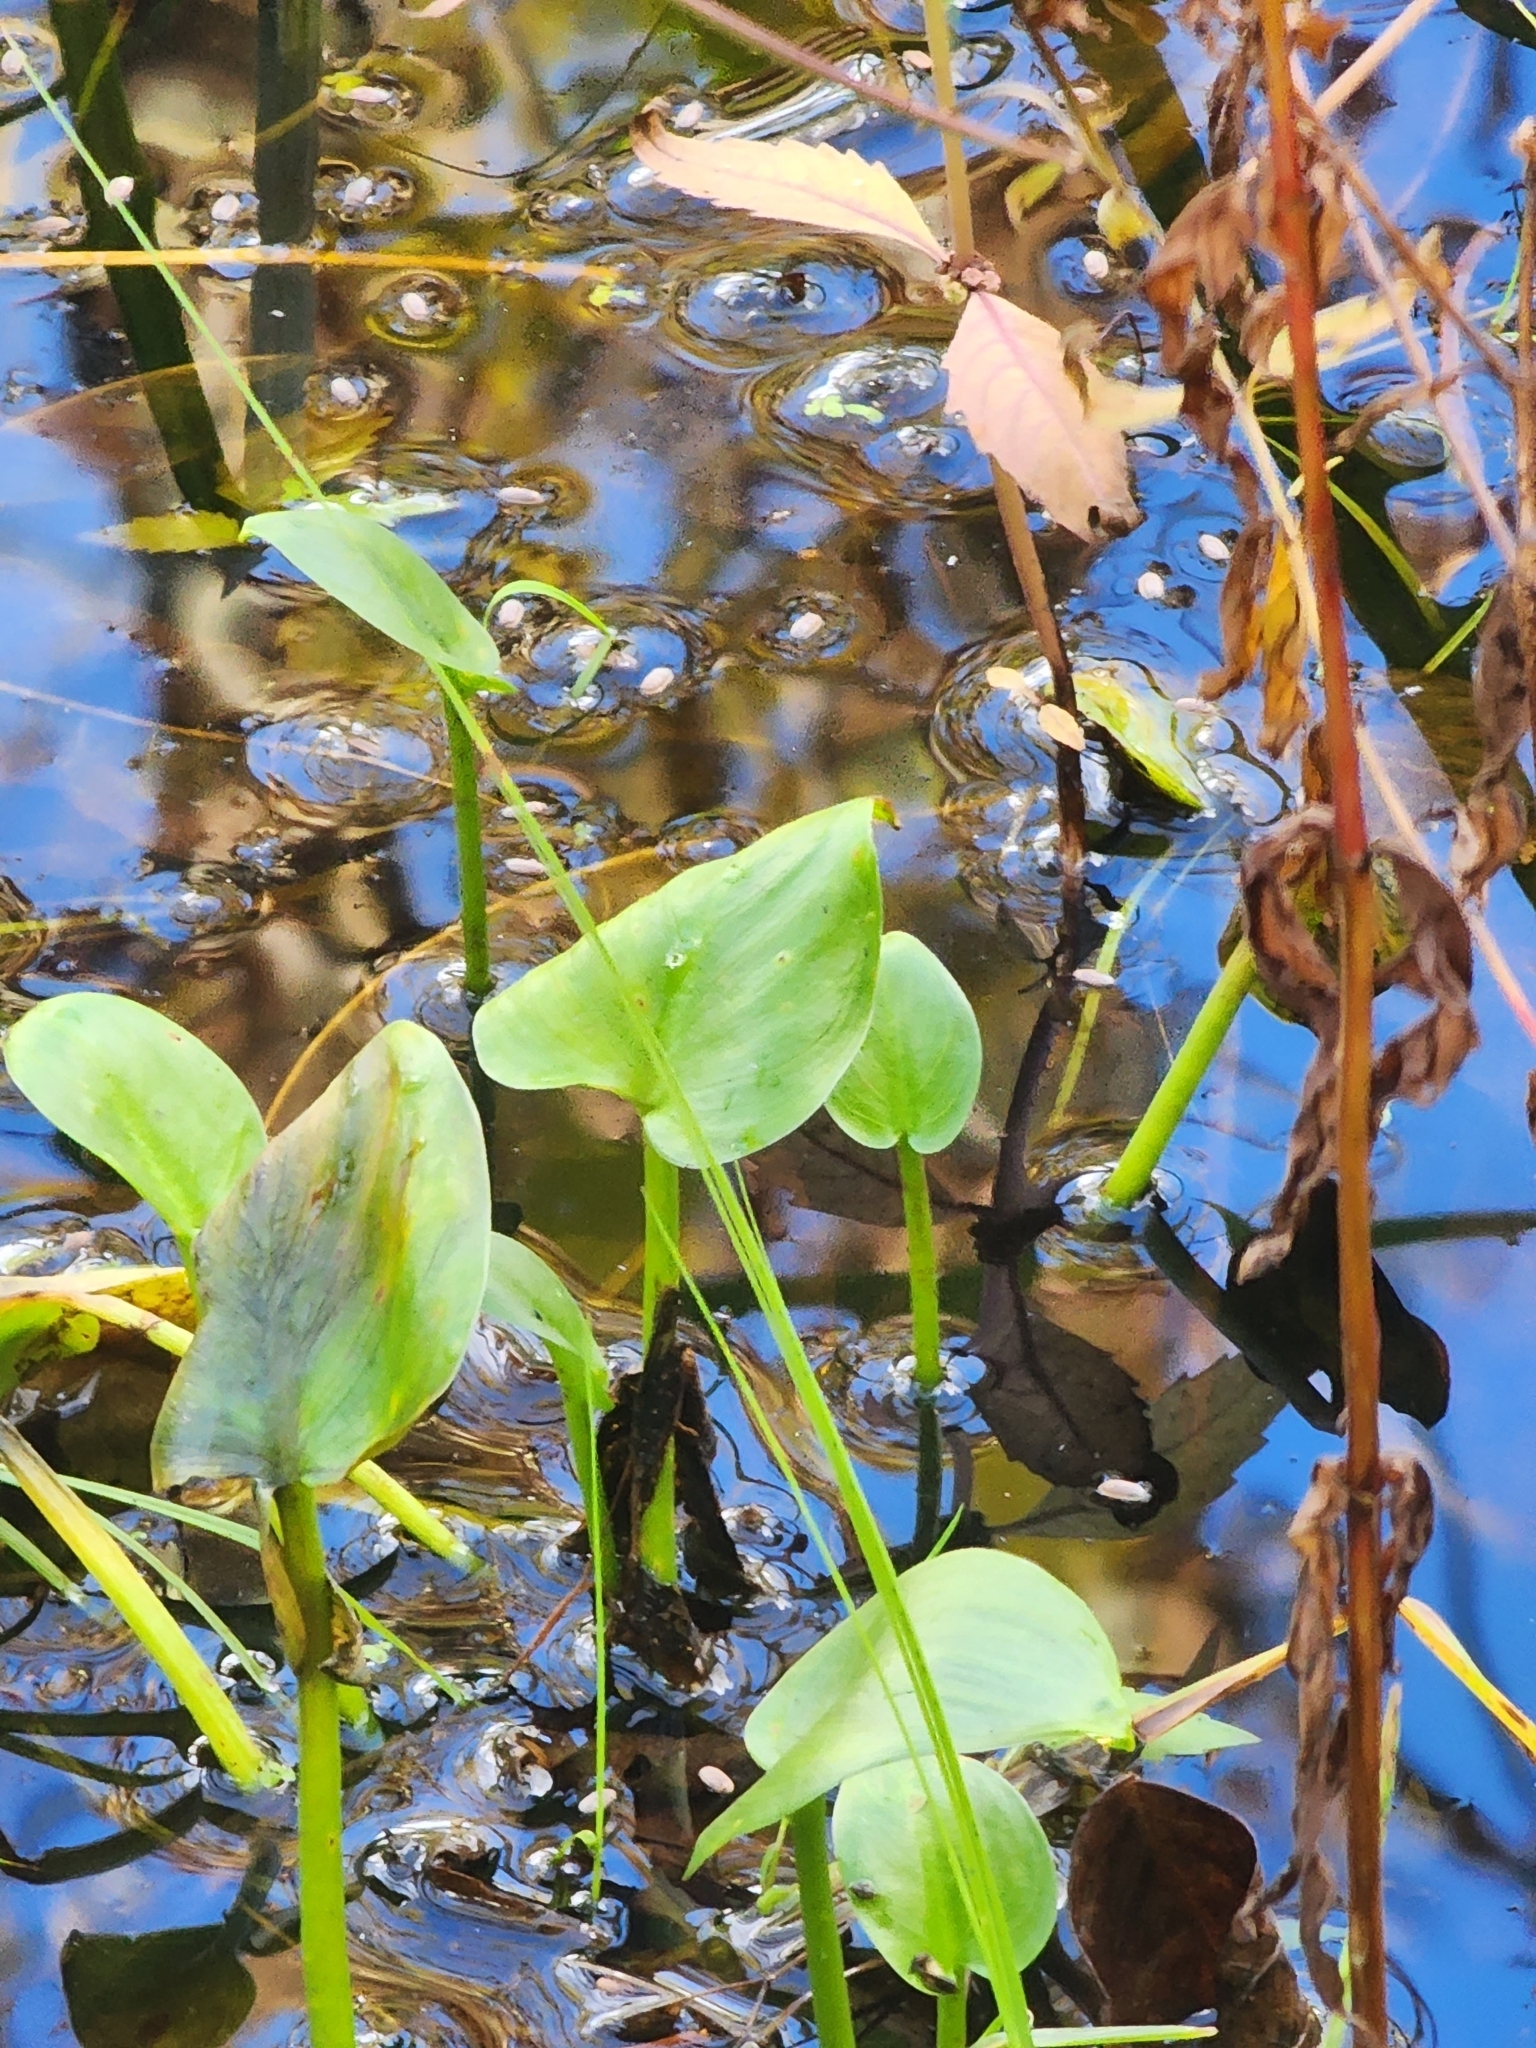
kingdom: Plantae
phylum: Tracheophyta
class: Liliopsida
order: Alismatales
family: Araceae
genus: Calla
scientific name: Calla palustris
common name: Bog arum
